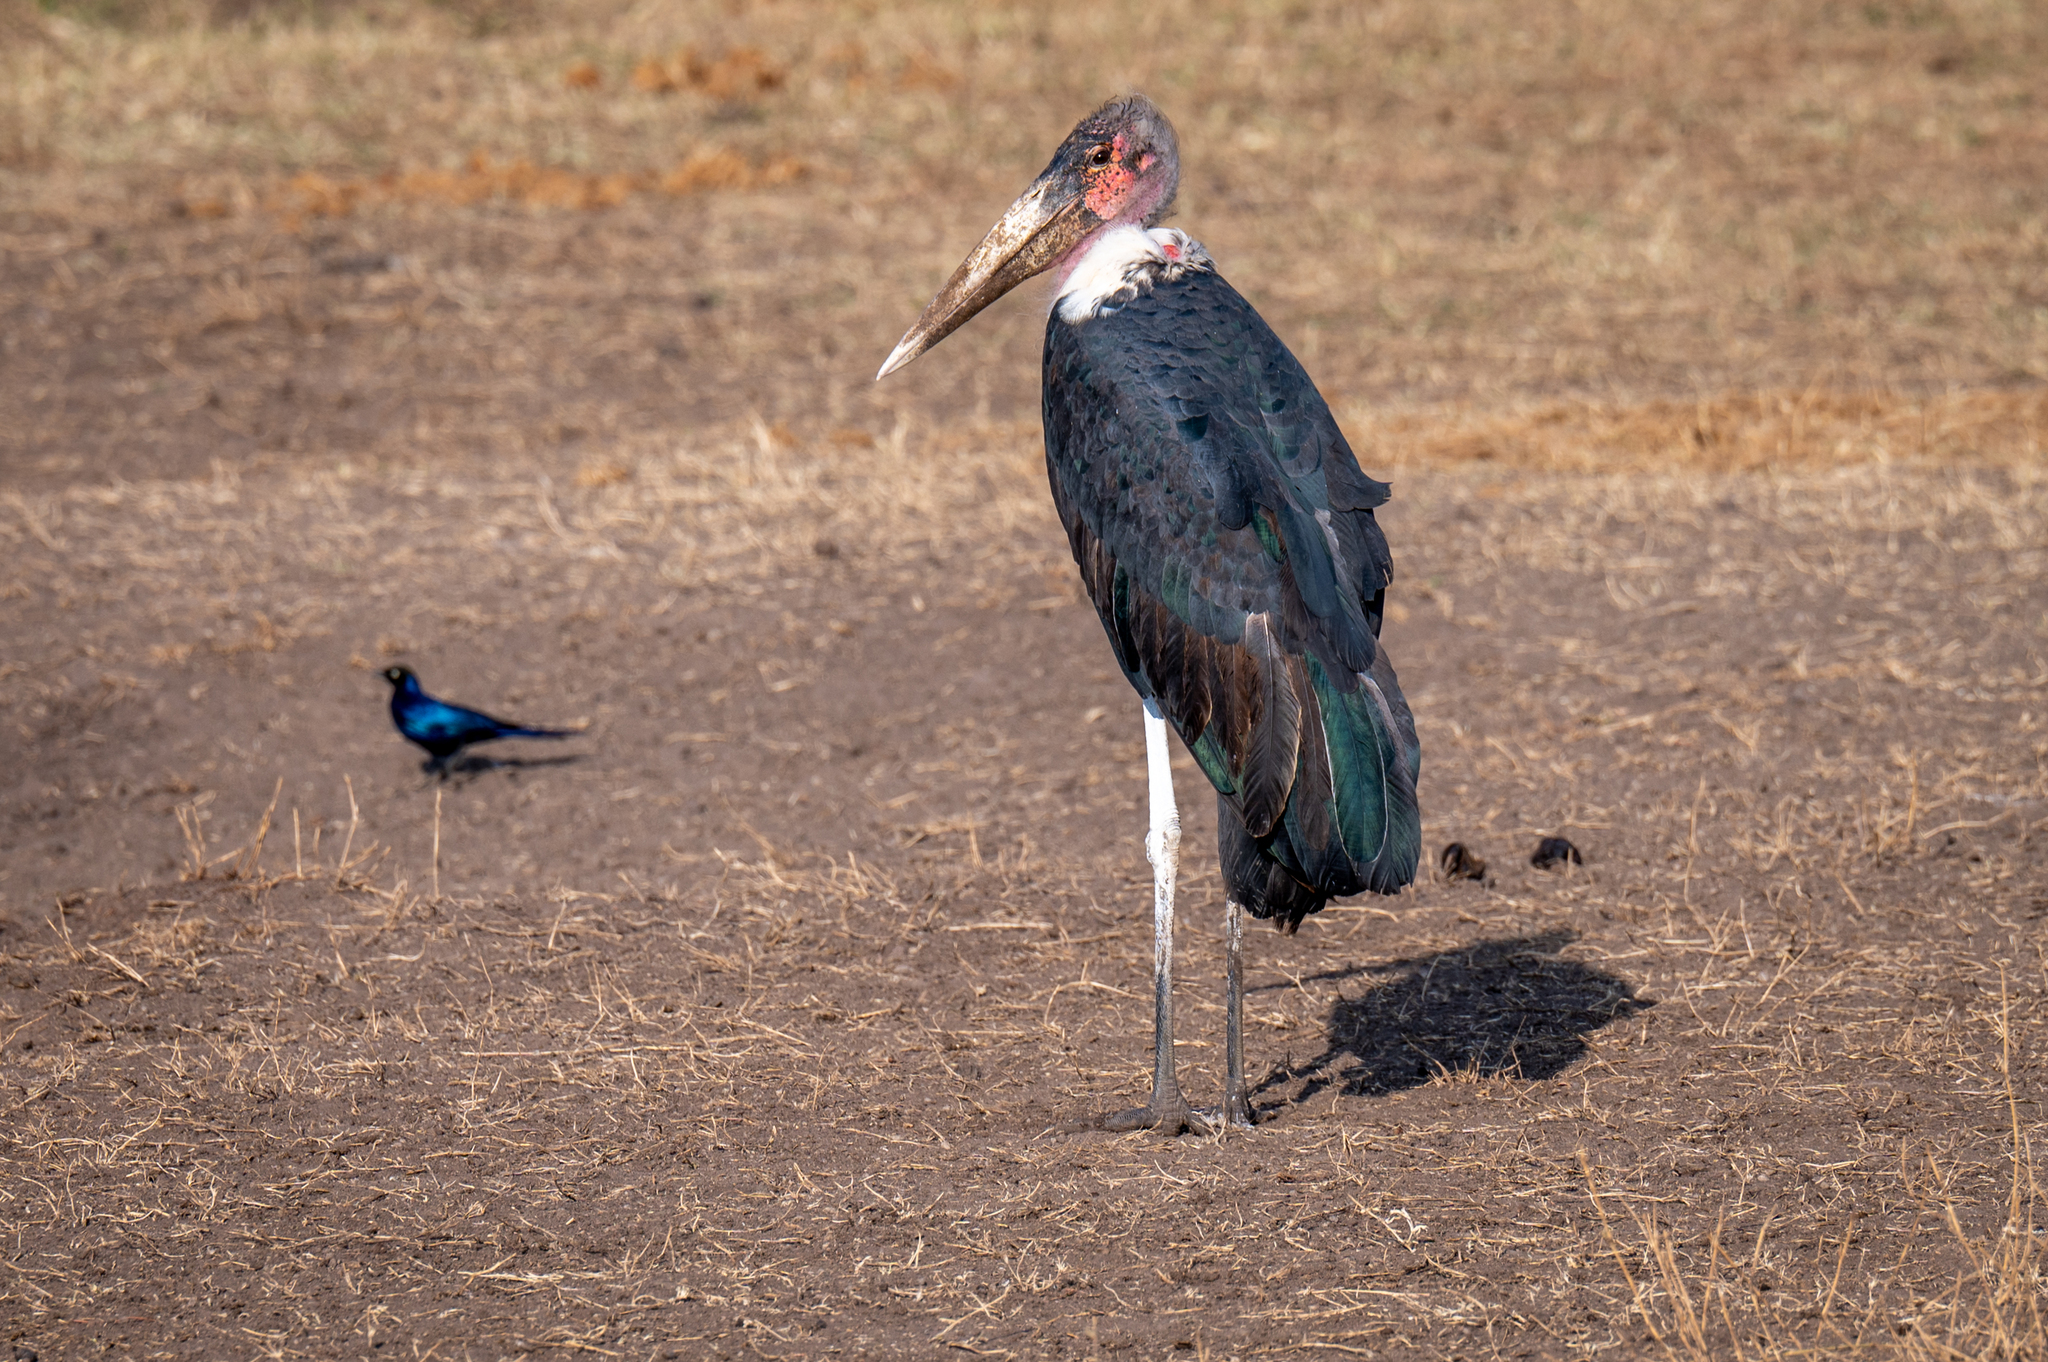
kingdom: Animalia
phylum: Chordata
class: Aves
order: Ciconiiformes
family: Ciconiidae
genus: Leptoptilos
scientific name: Leptoptilos crumenifer
